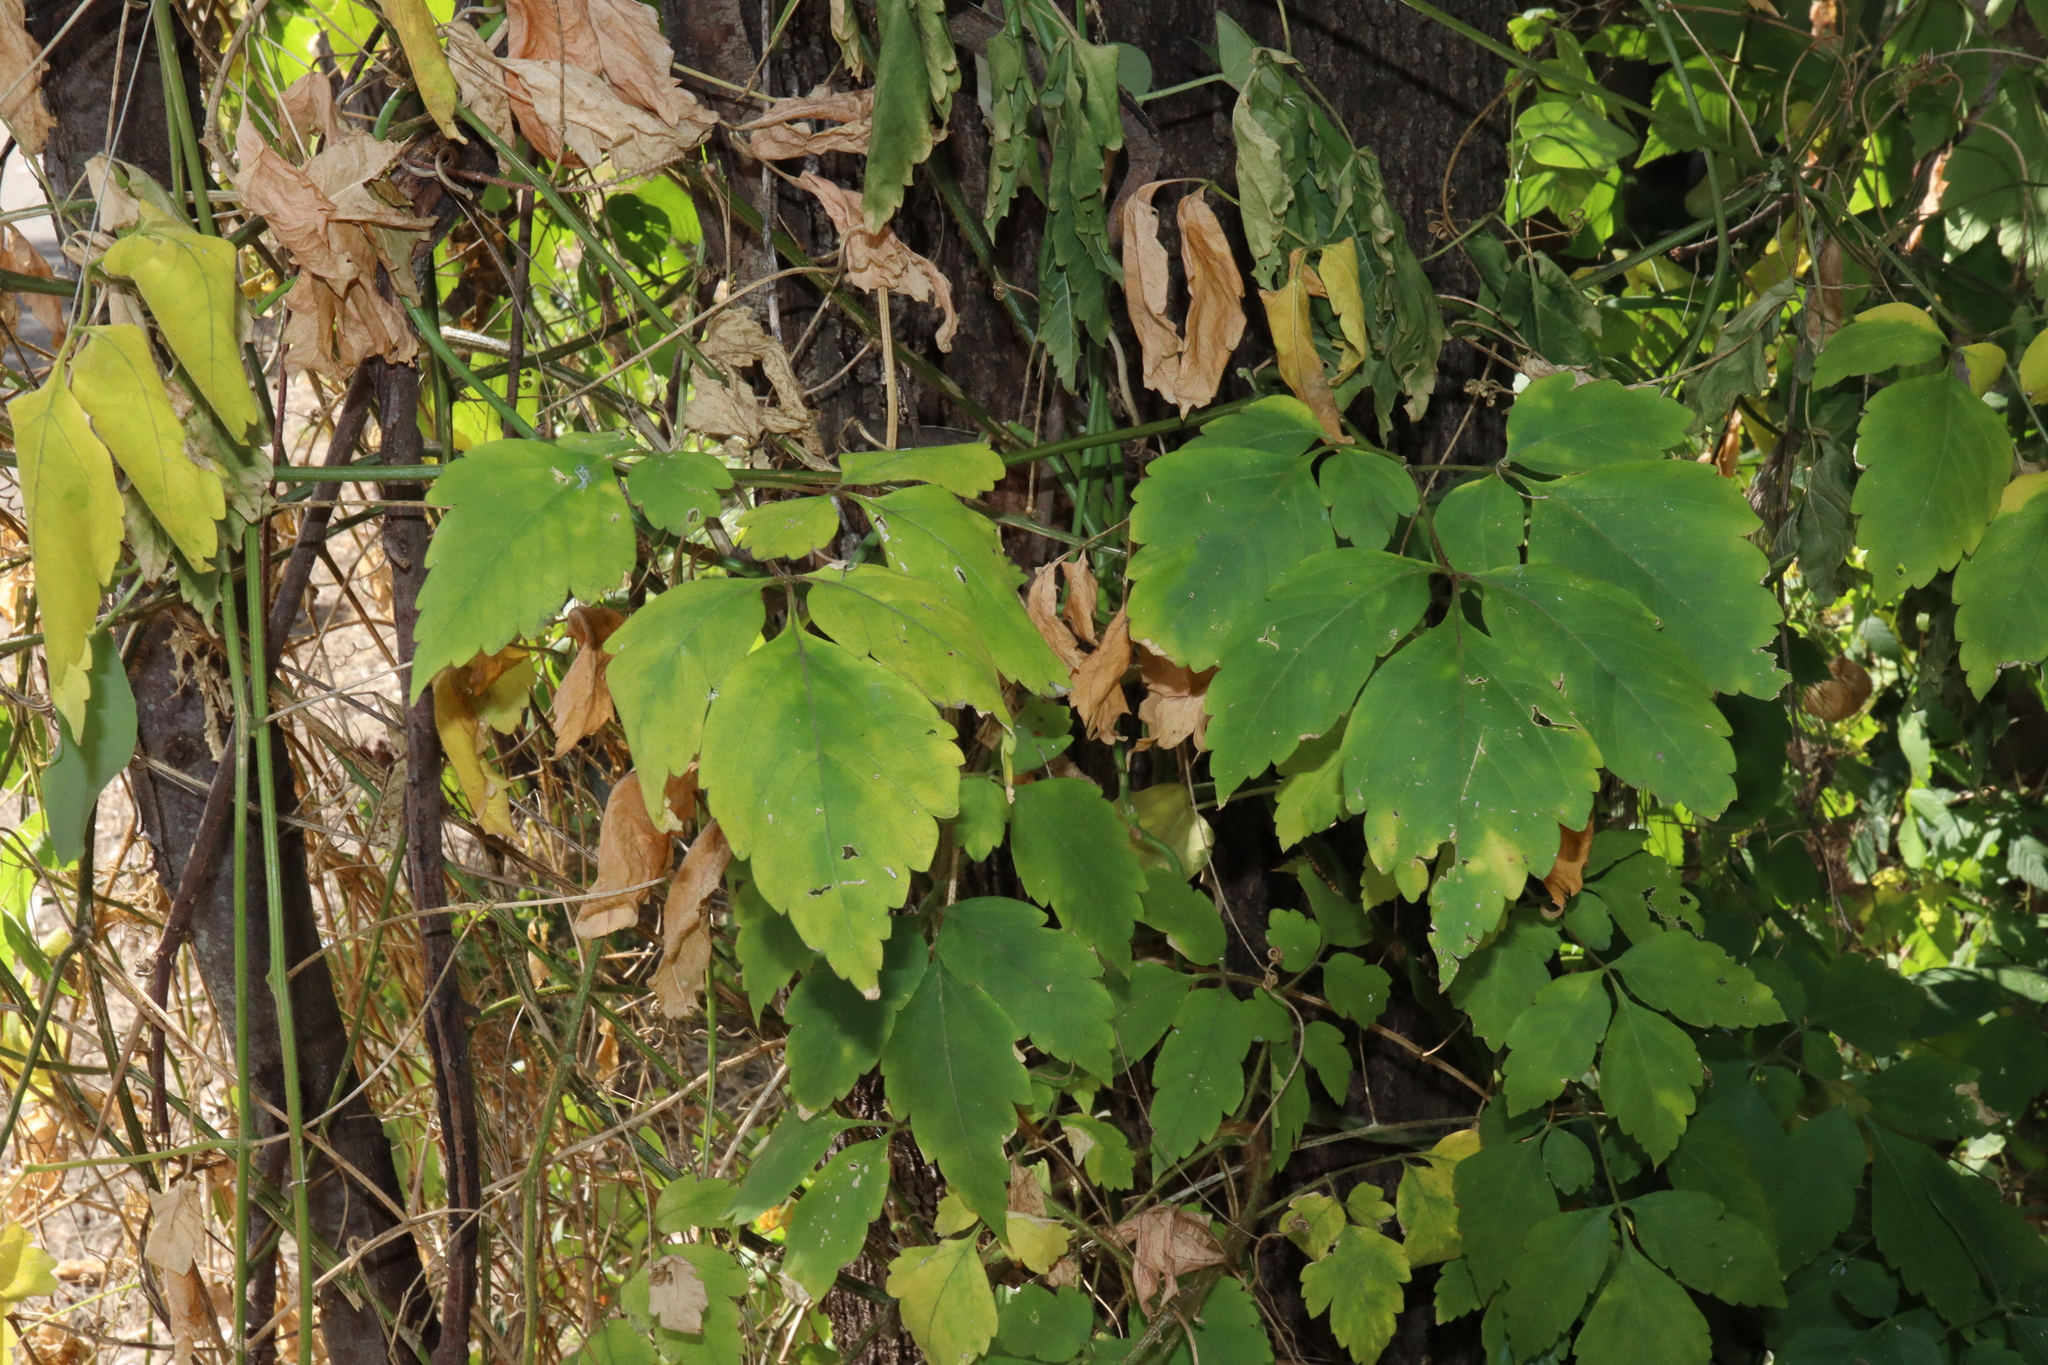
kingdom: Plantae
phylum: Tracheophyta
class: Magnoliopsida
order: Sapindales
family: Sapindaceae
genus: Cardiospermum
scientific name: Cardiospermum grandiflorum
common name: Balloon vine
